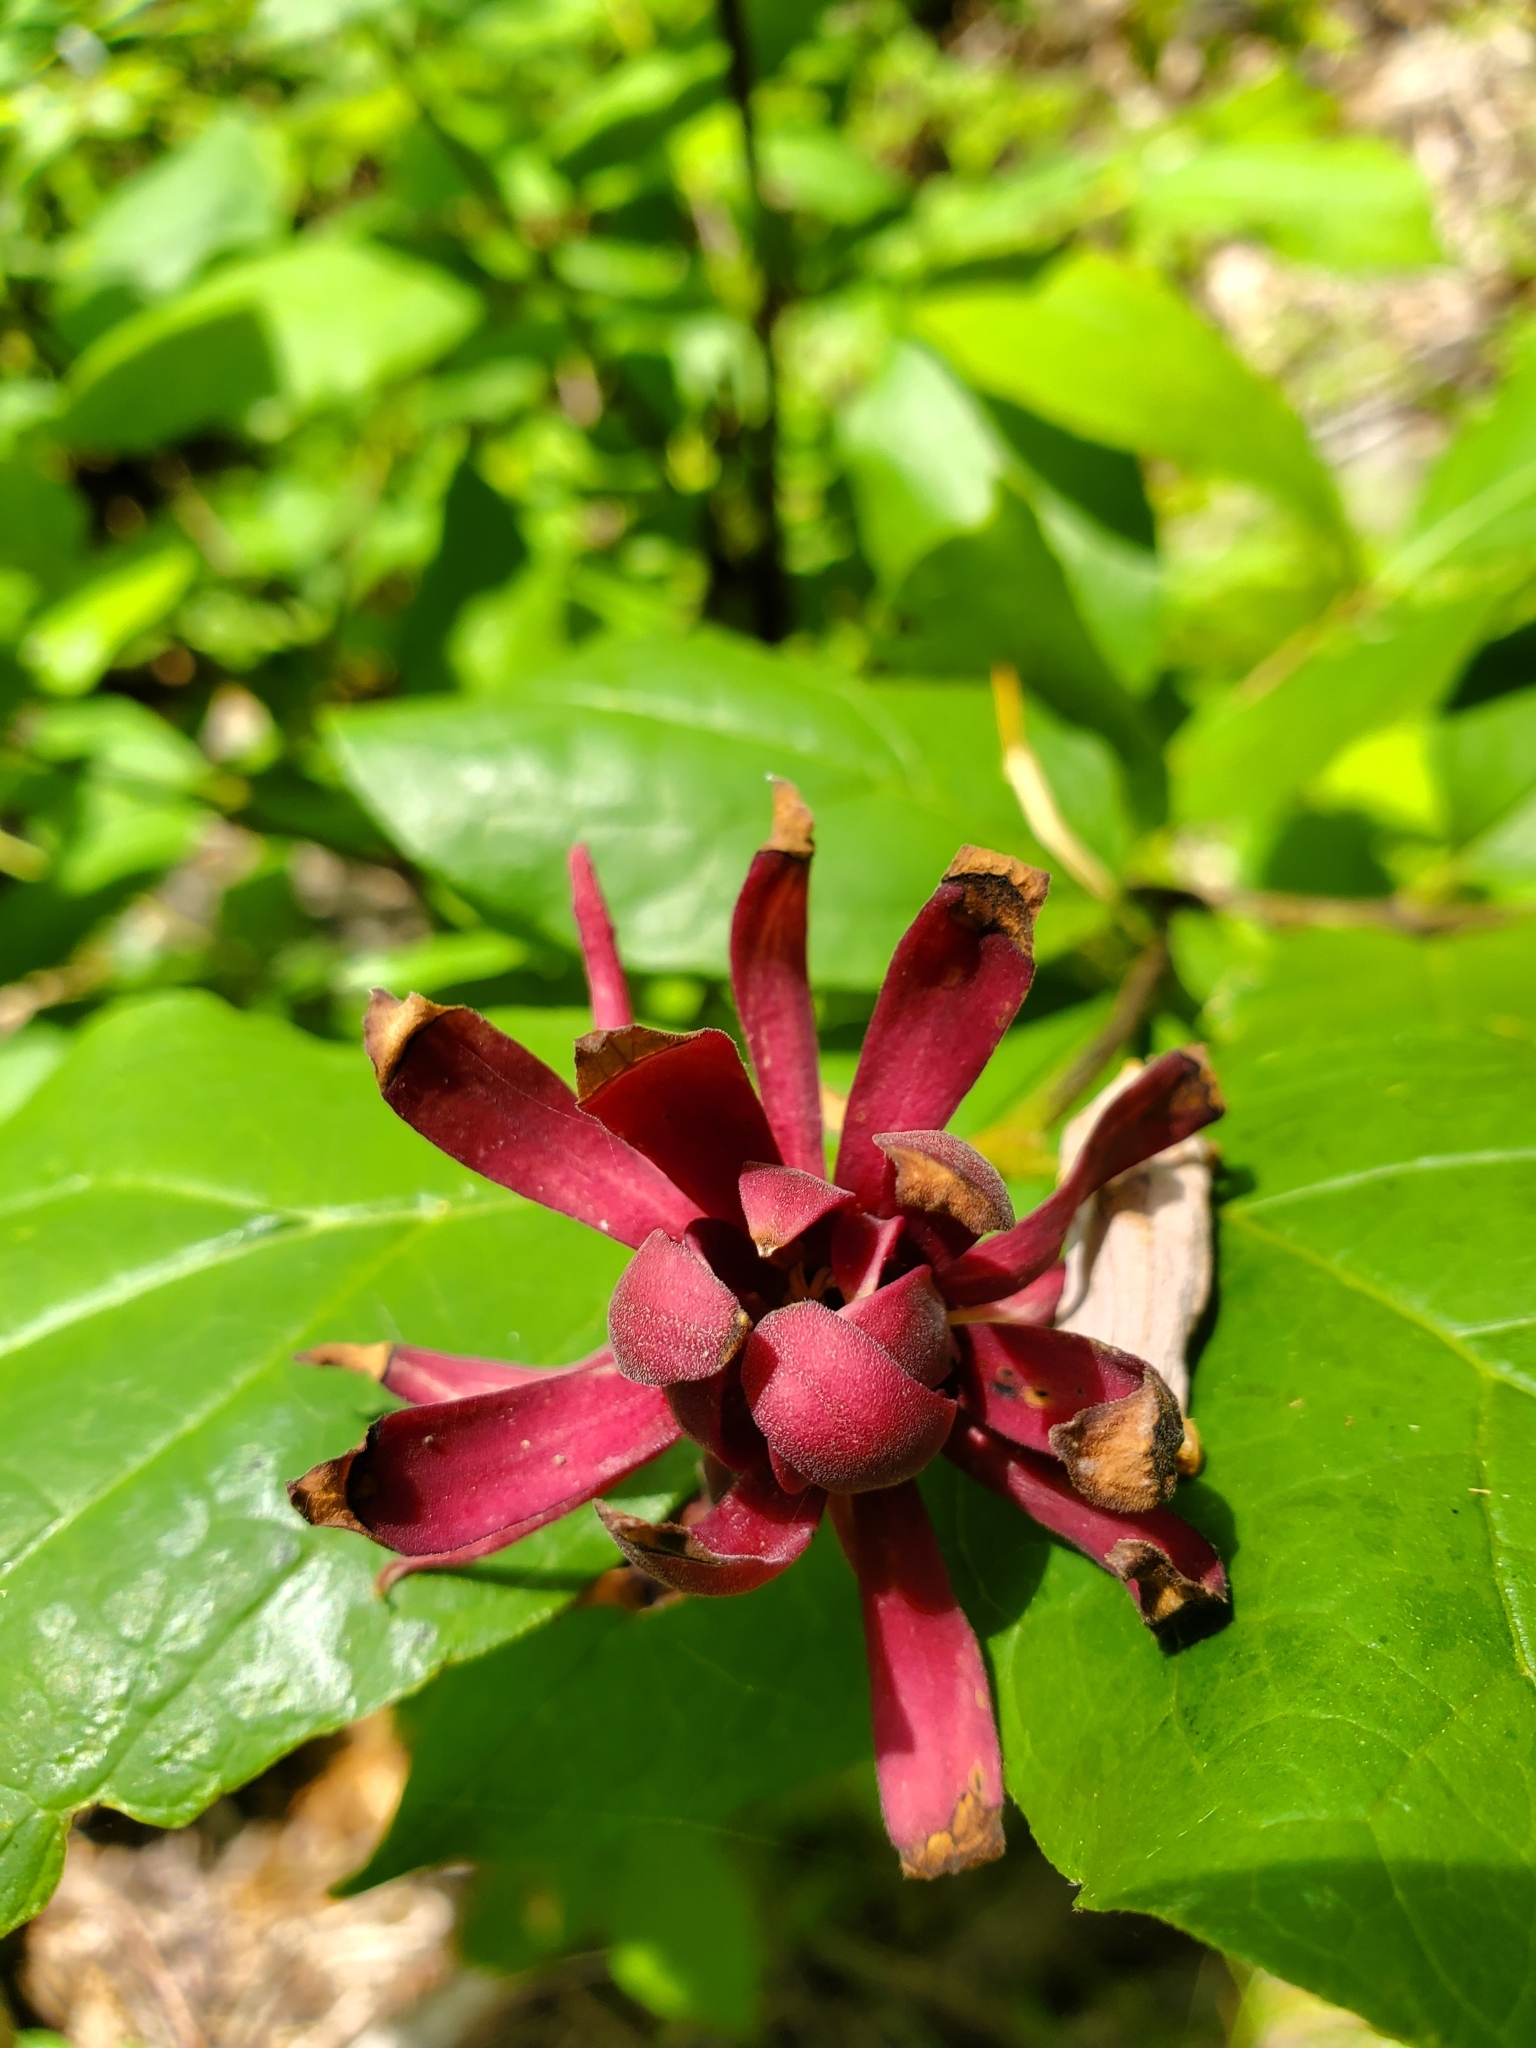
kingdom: Plantae
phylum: Tracheophyta
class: Magnoliopsida
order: Laurales
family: Calycanthaceae
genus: Calycanthus
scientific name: Calycanthus floridus
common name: Carolina-allspice
